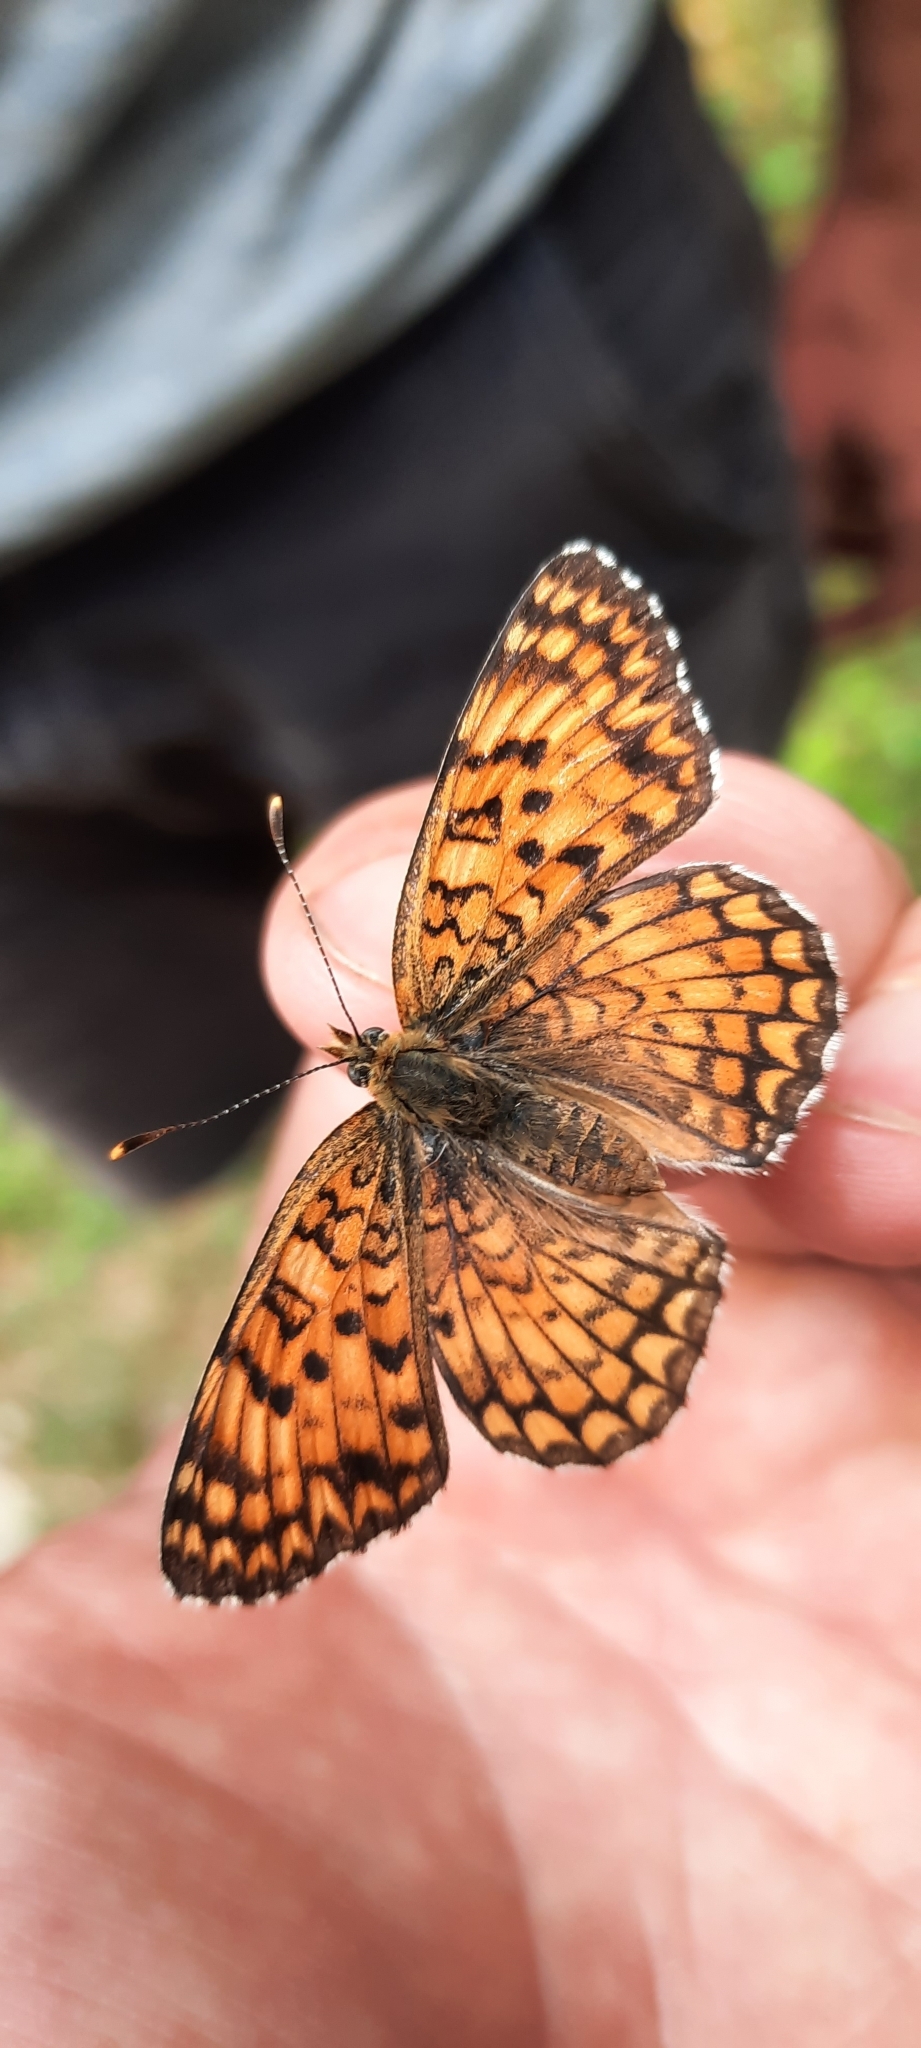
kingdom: Animalia
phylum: Arthropoda
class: Insecta
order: Lepidoptera
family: Nymphalidae
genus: Melitaea
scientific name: Melitaea phoebe
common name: Knapweed fritillary
